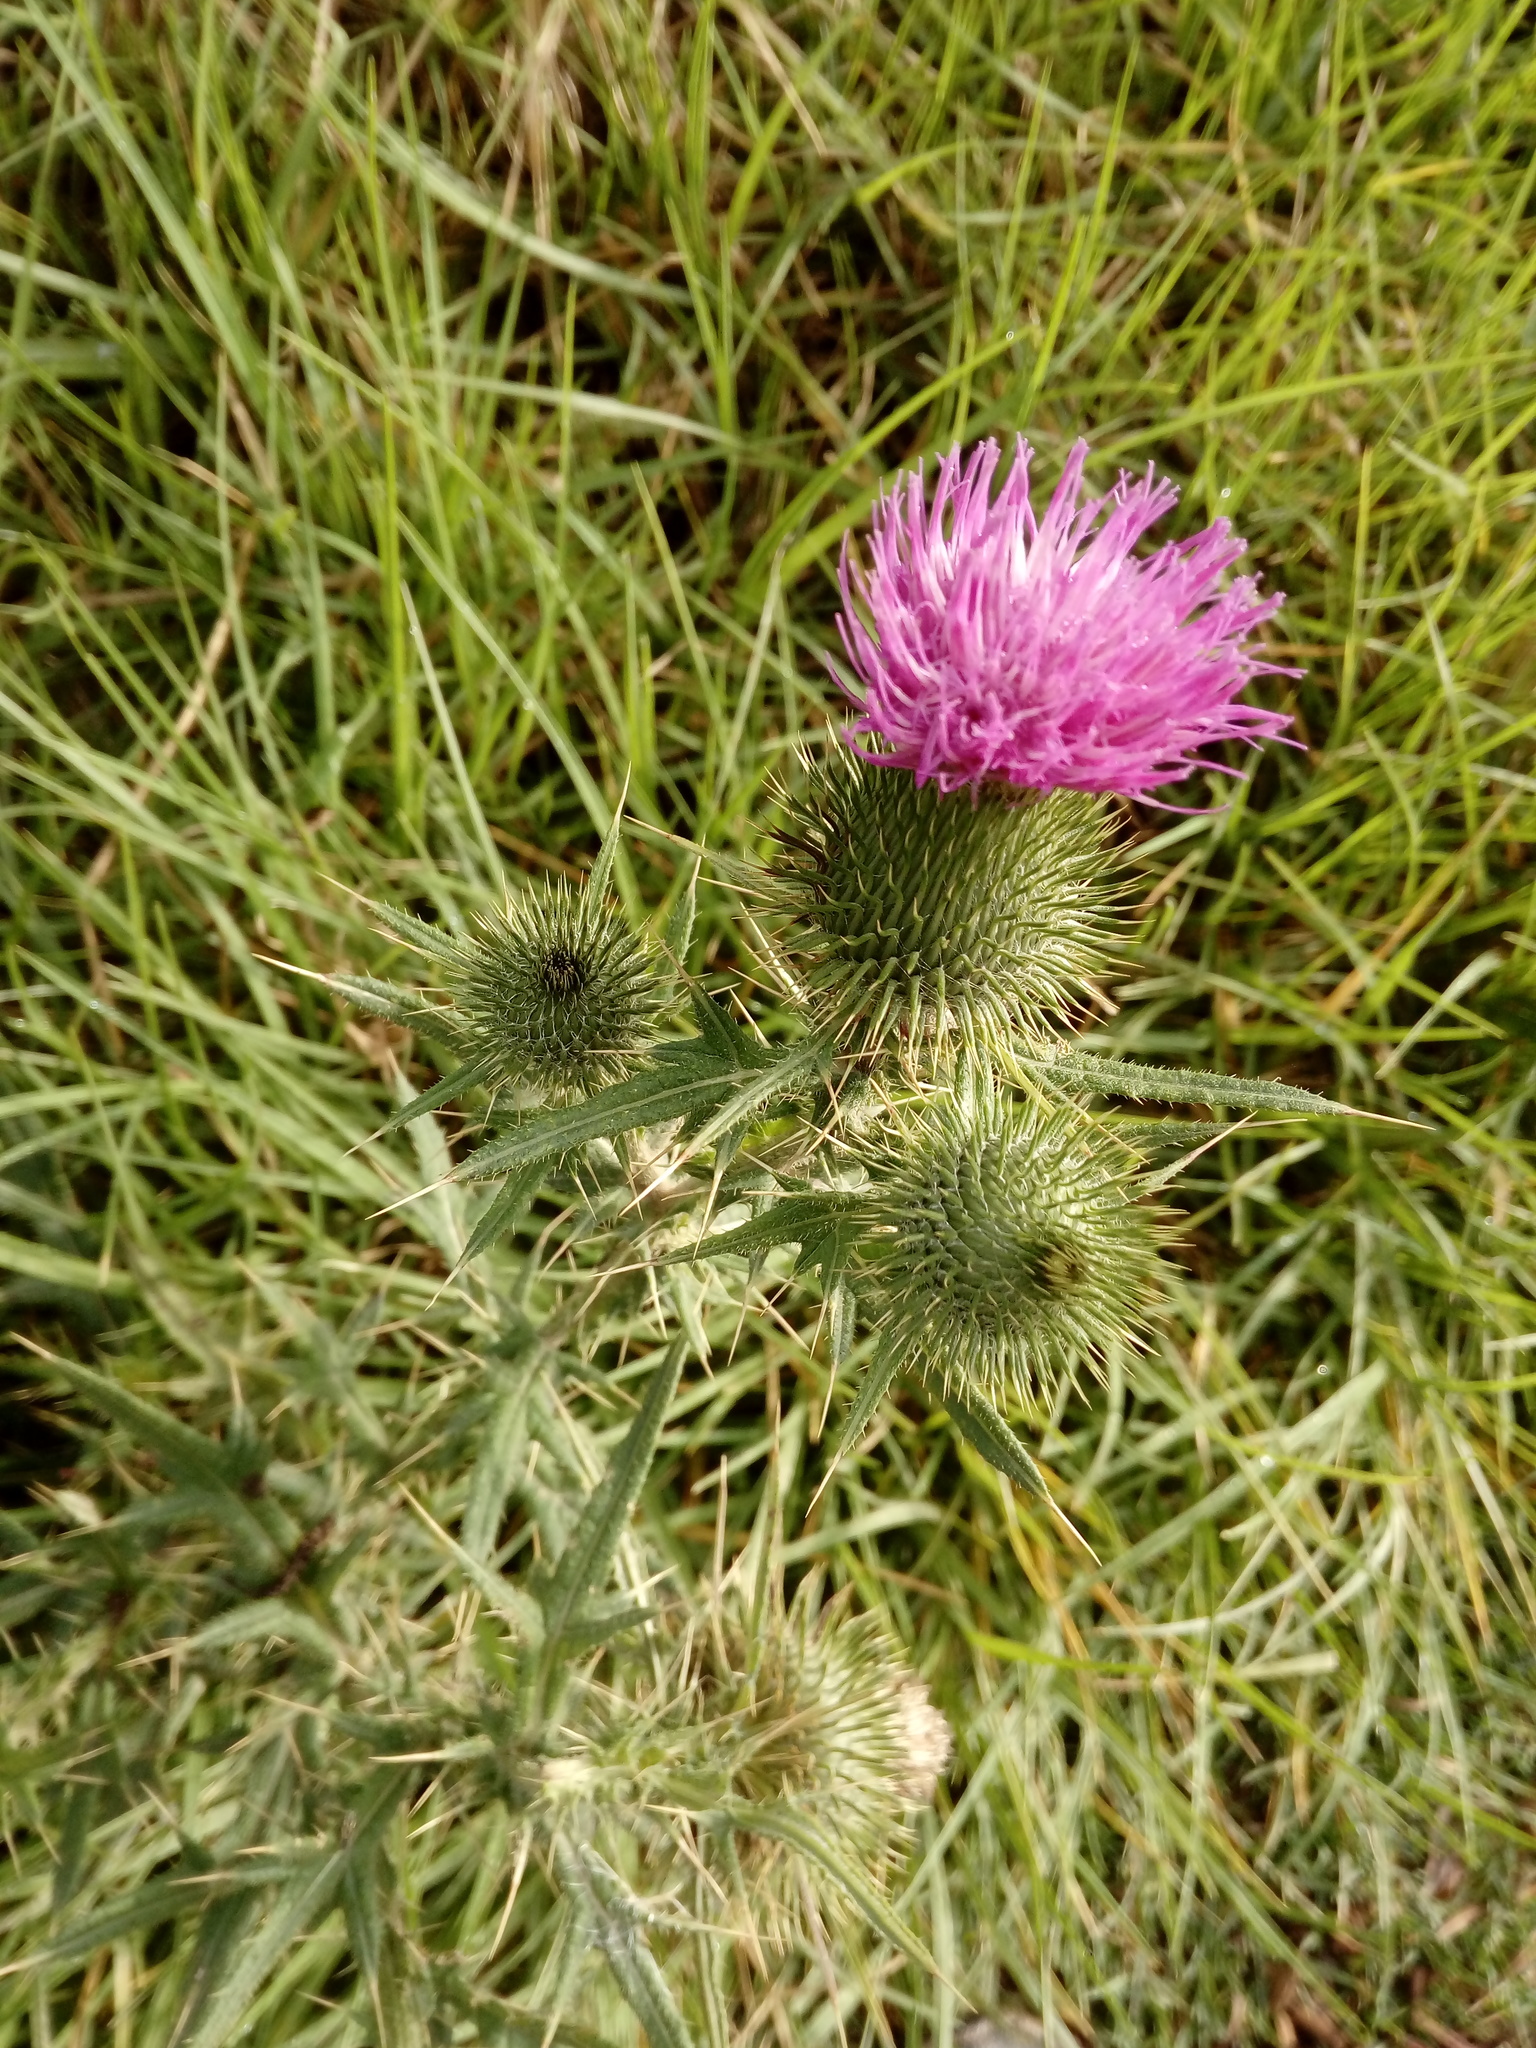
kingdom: Plantae
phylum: Tracheophyta
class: Magnoliopsida
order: Asterales
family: Asteraceae
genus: Cirsium
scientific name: Cirsium vulgare
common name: Bull thistle
